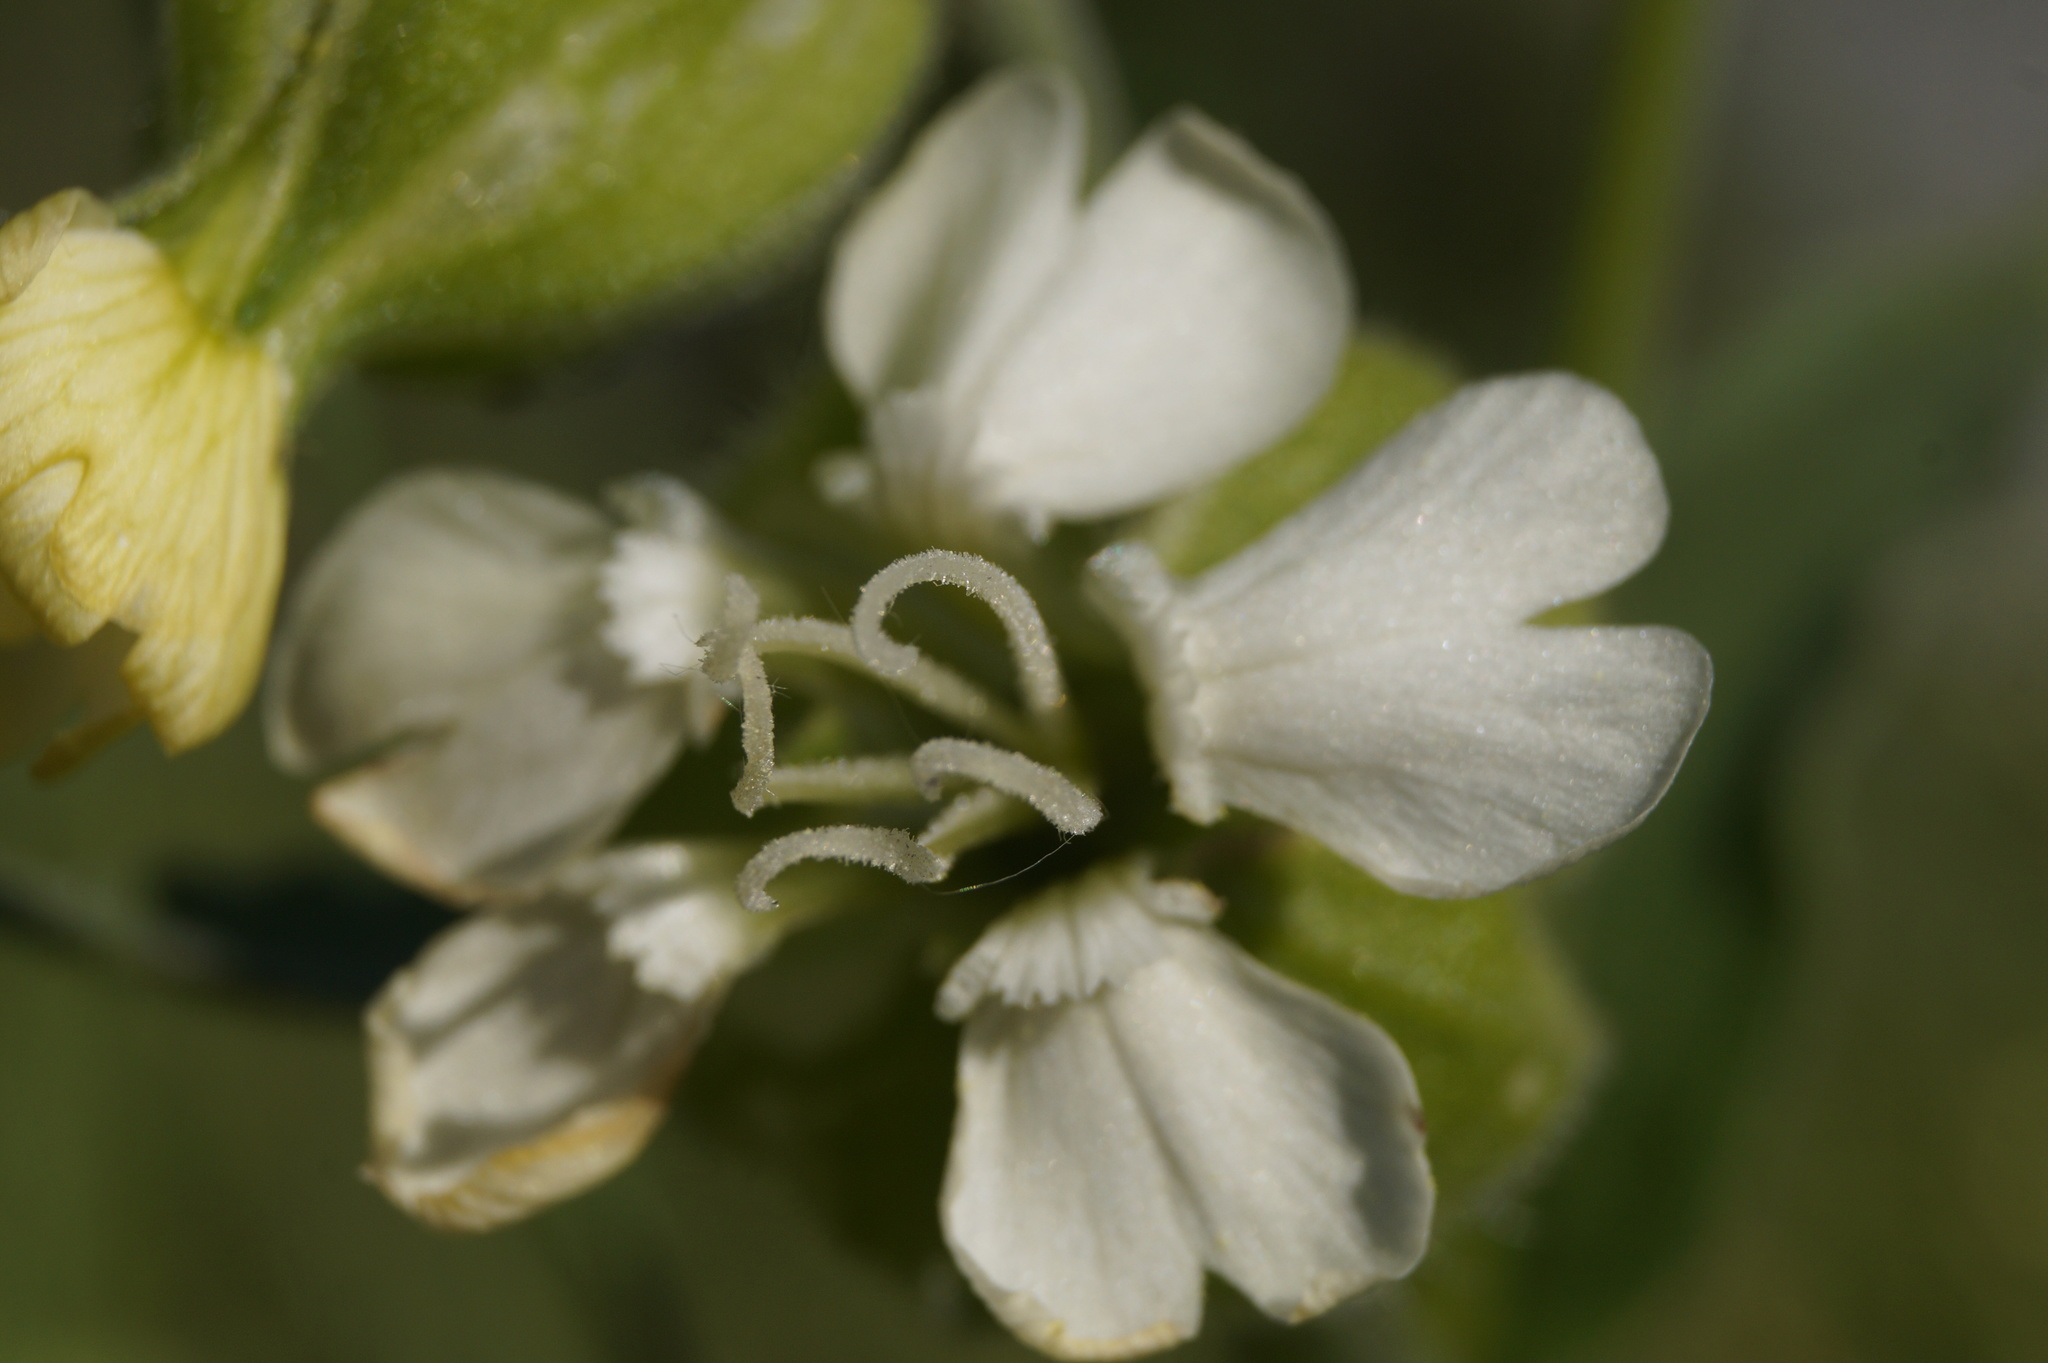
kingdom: Plantae
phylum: Tracheophyta
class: Magnoliopsida
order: Caryophyllales
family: Caryophyllaceae
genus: Silene
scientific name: Silene latifolia
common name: White campion
